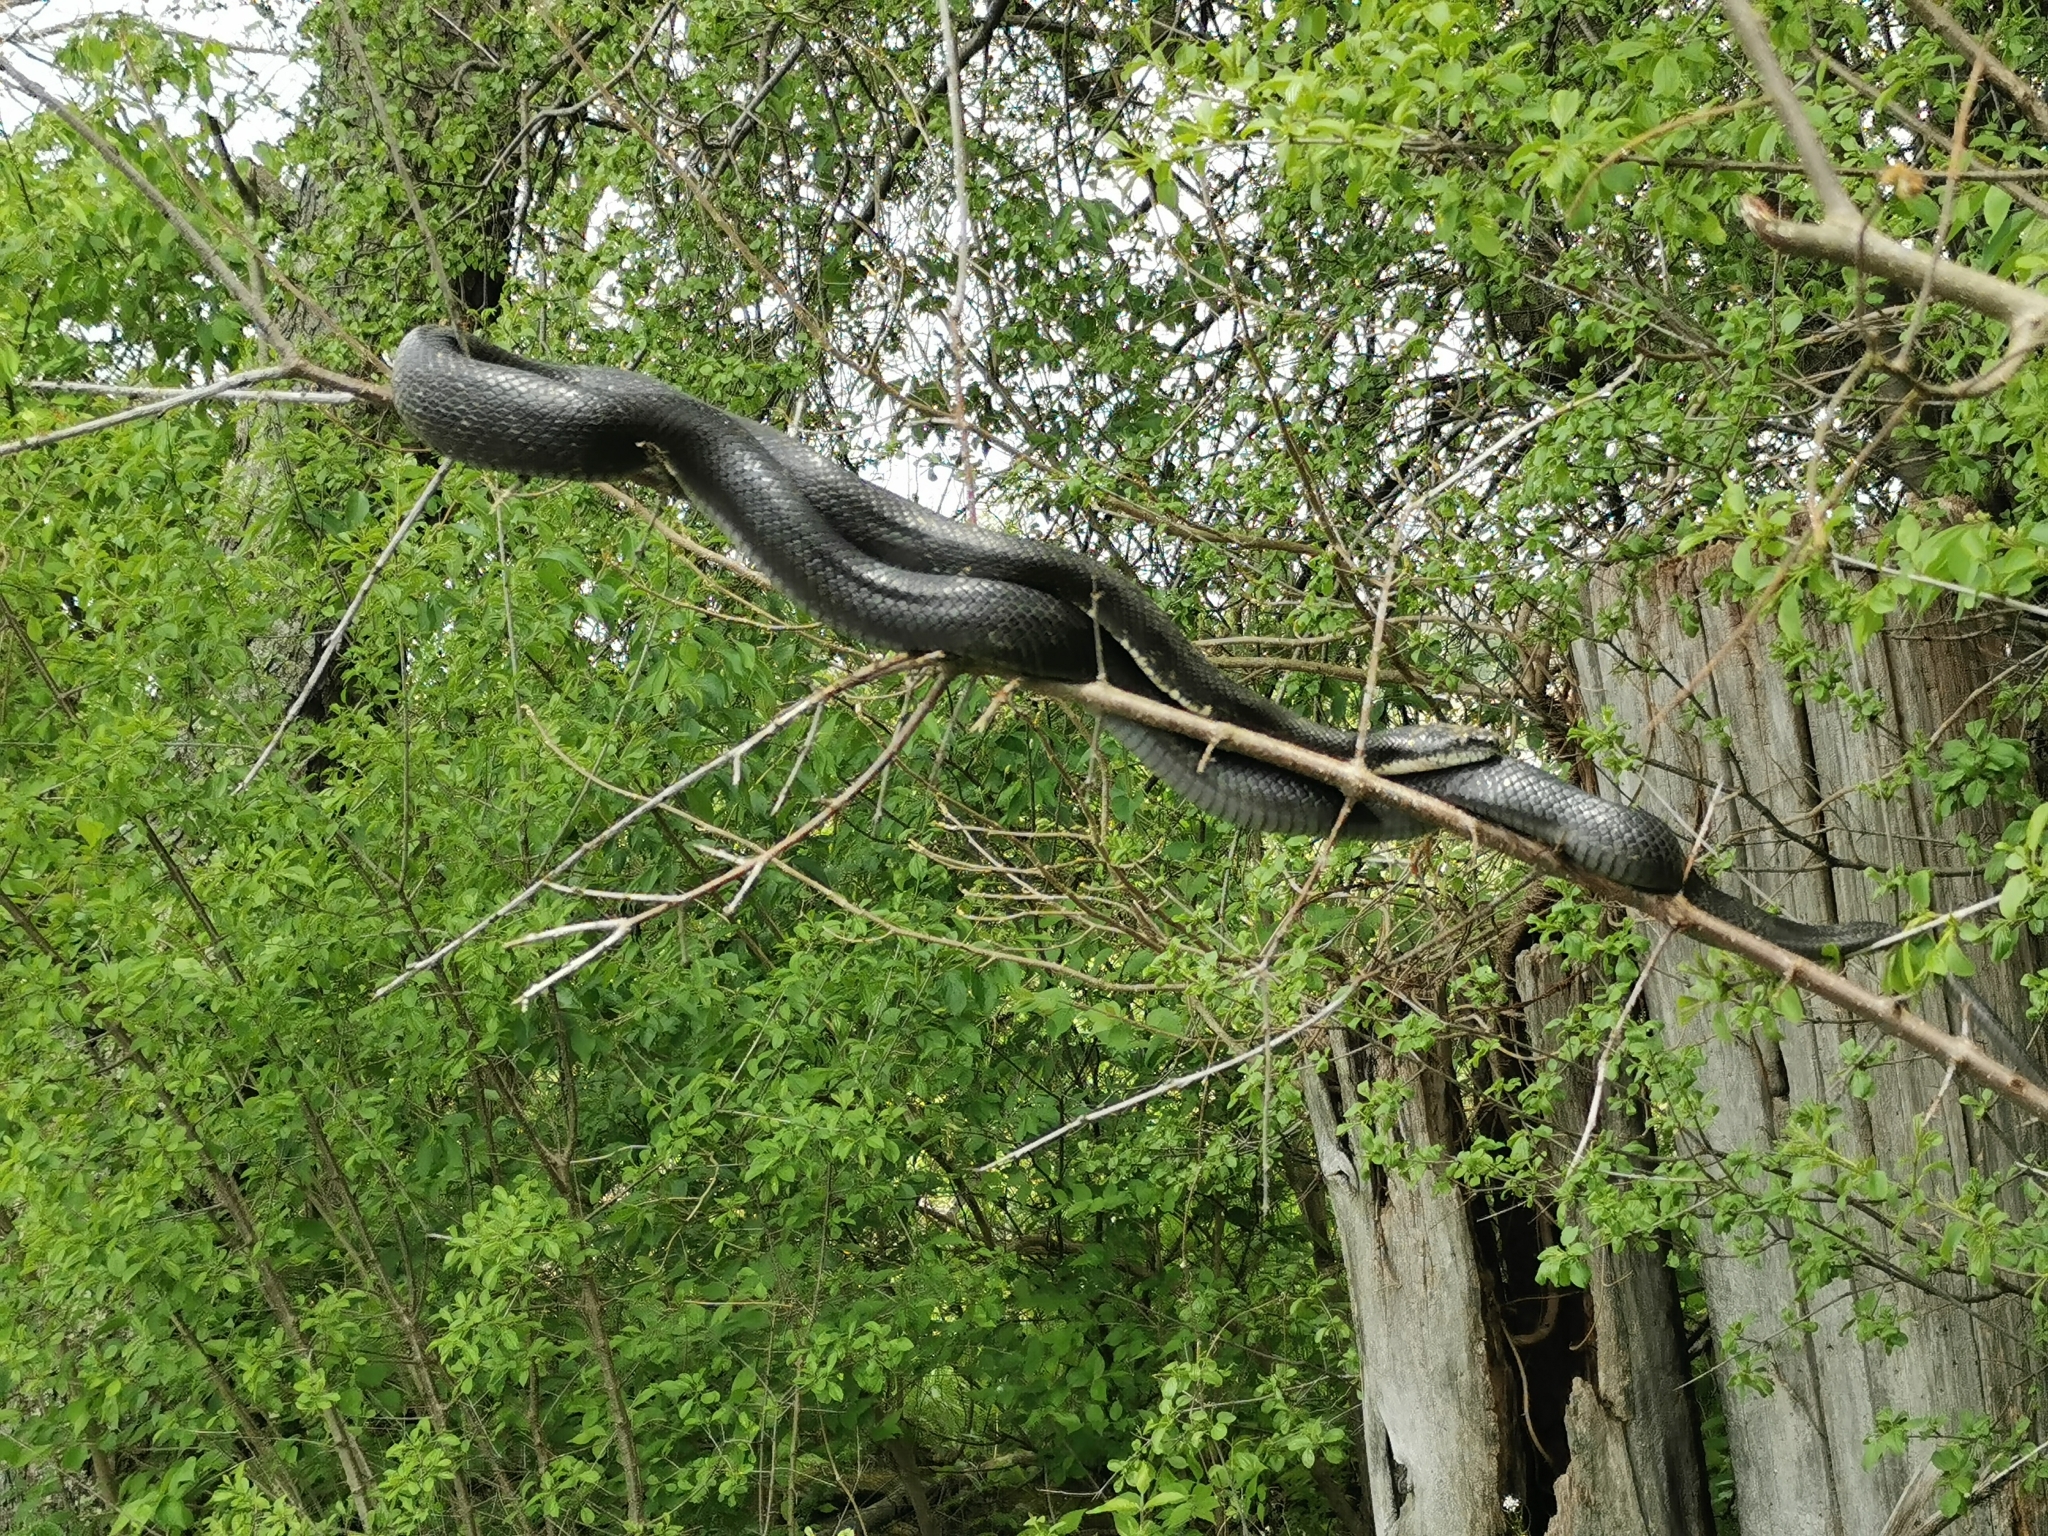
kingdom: Animalia
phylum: Chordata
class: Squamata
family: Colubridae
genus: Pantherophis
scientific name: Pantherophis alleghaniensis
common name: Eastern rat snake
